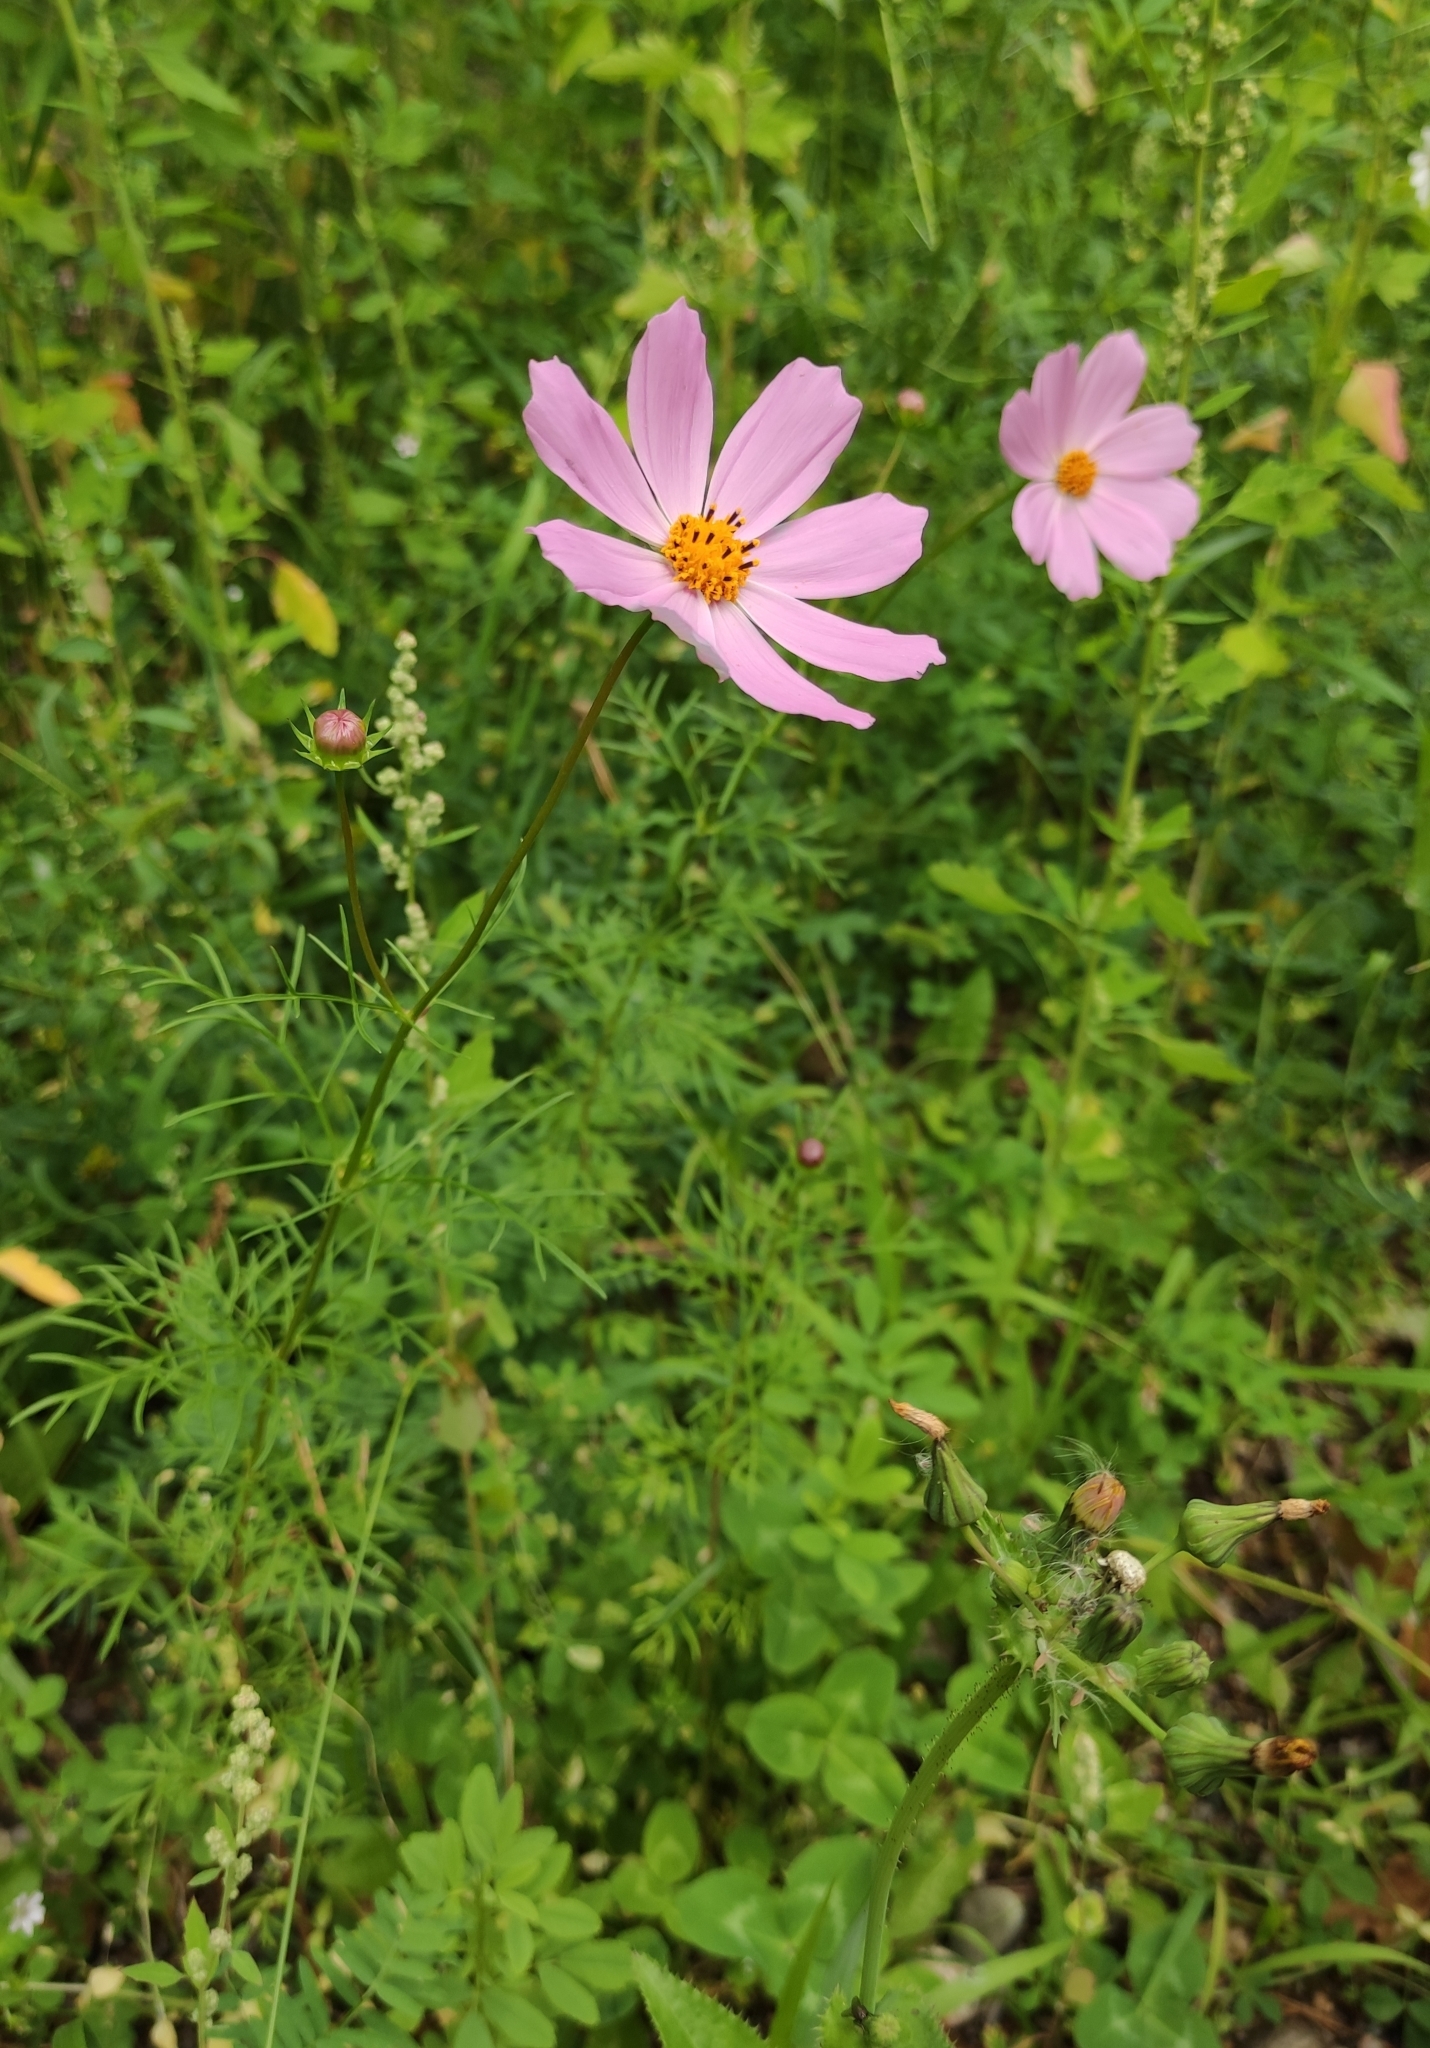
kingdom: Plantae
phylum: Tracheophyta
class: Magnoliopsida
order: Asterales
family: Asteraceae
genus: Cosmos
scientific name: Cosmos bipinnatus
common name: Garden cosmos
